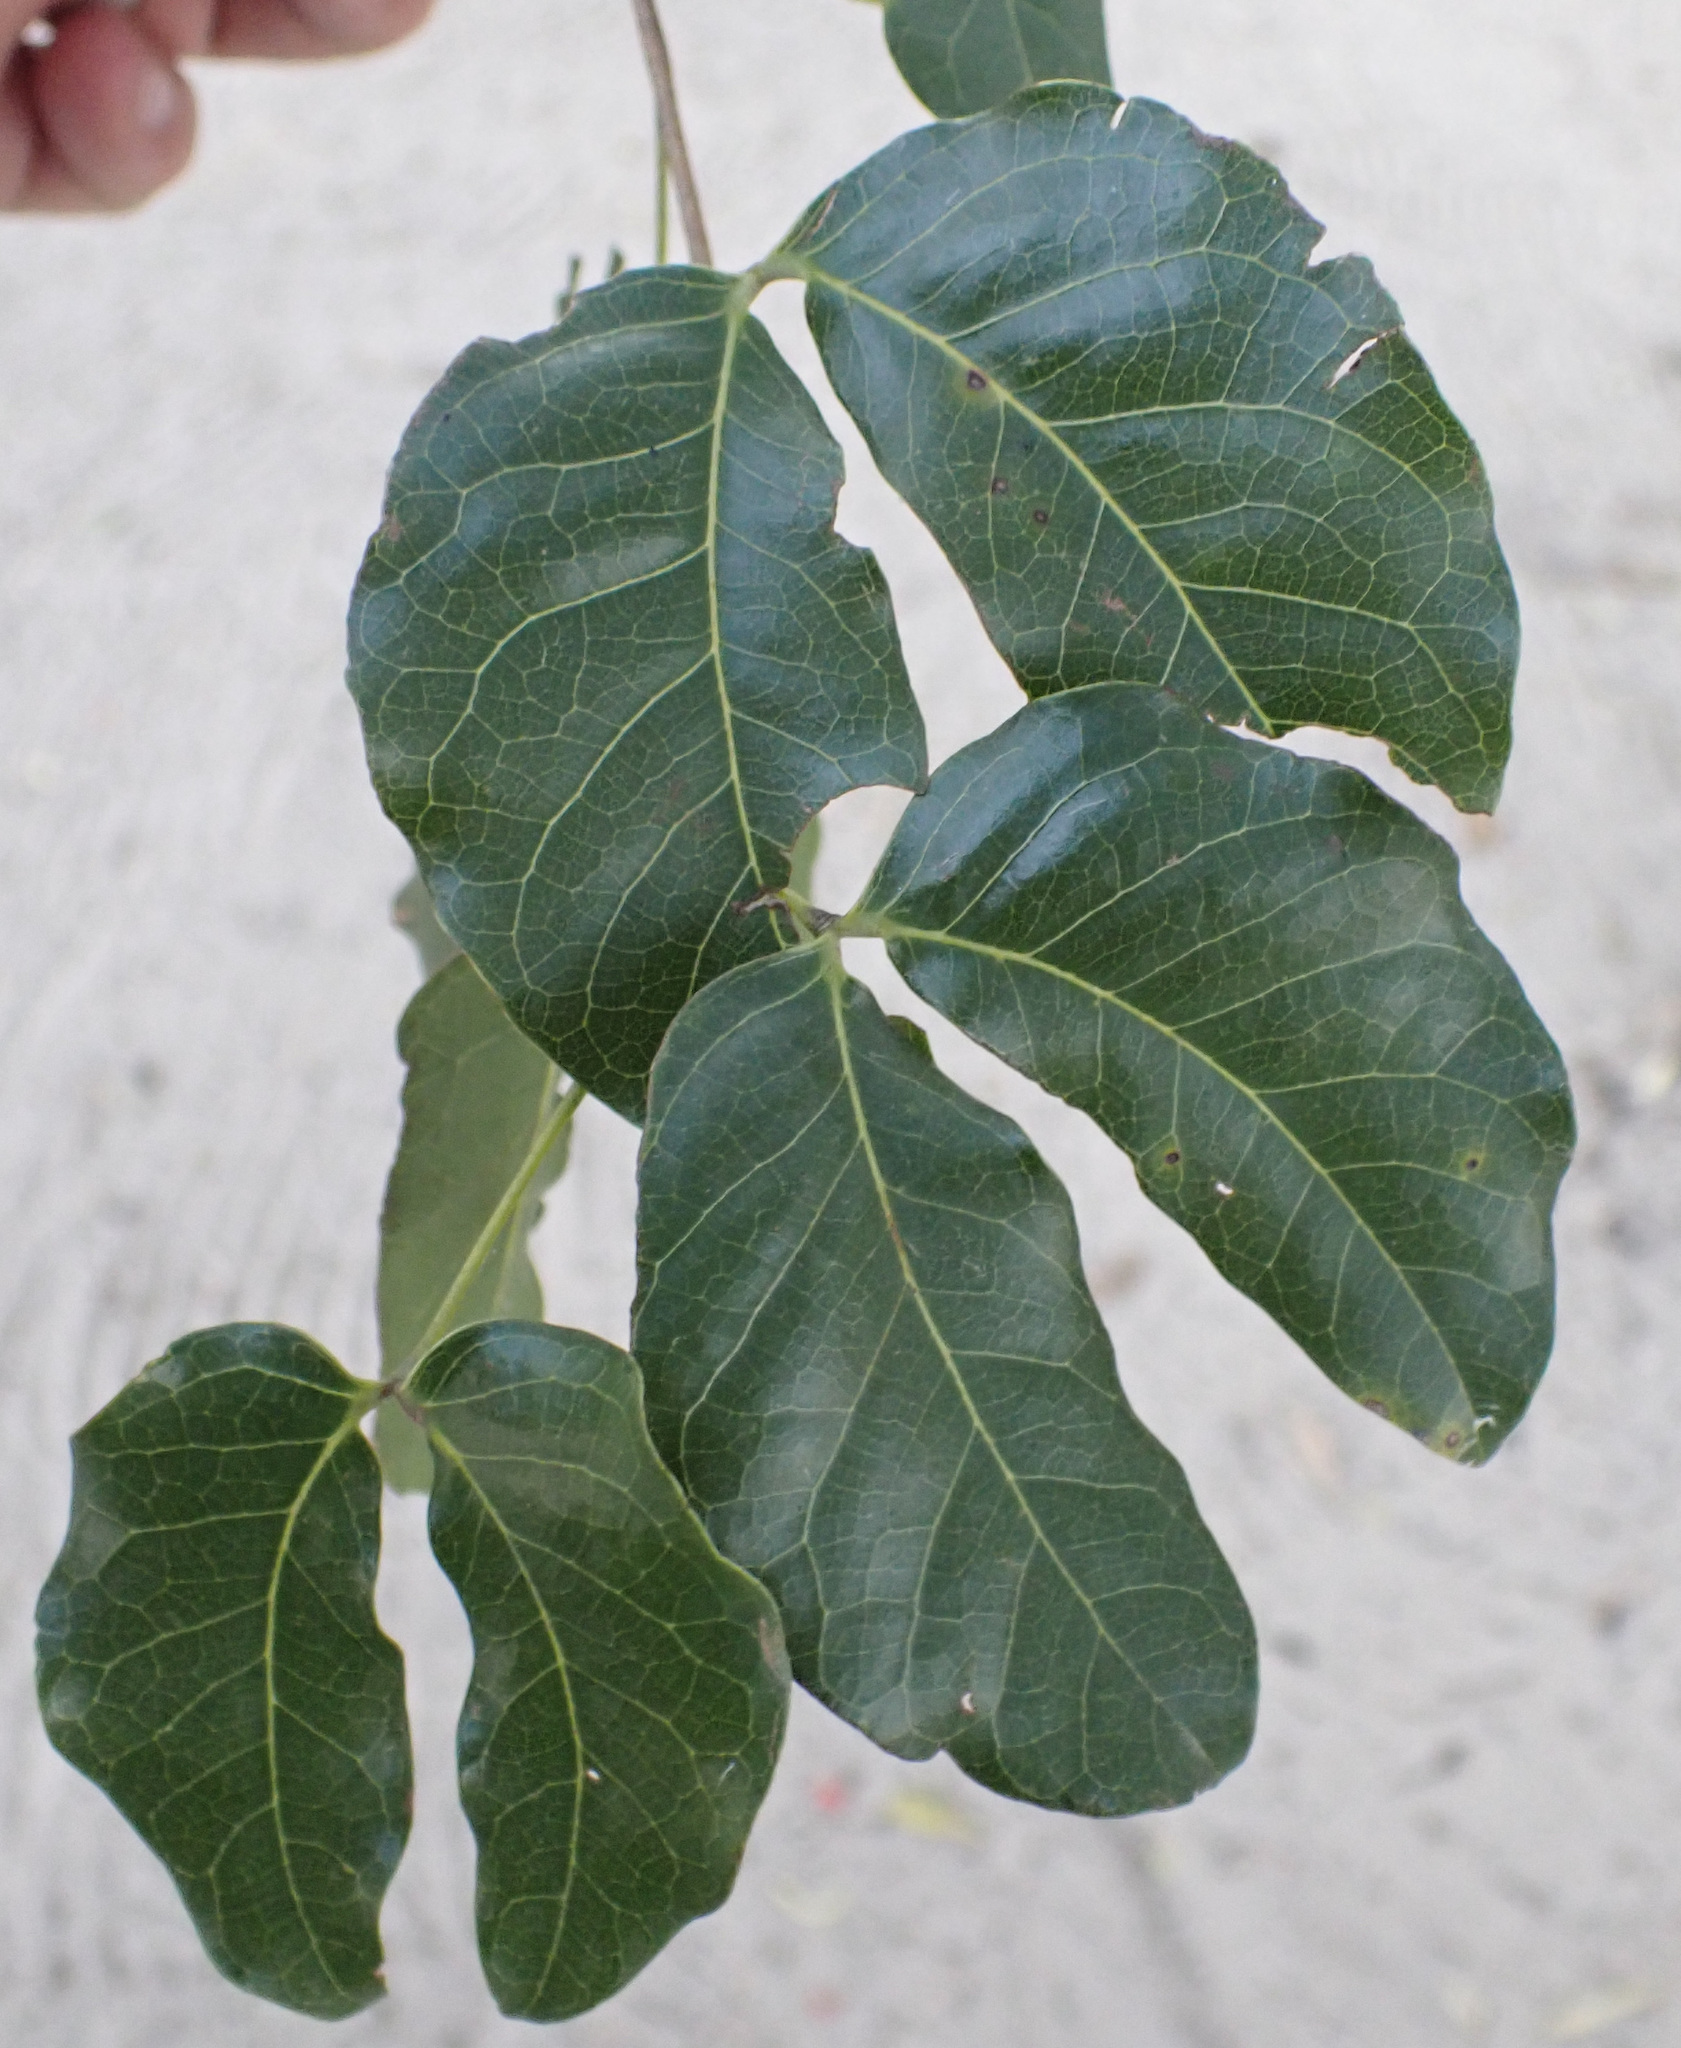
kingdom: Plantae
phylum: Tracheophyta
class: Magnoliopsida
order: Fabales
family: Fabaceae
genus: Guibourtia
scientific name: Guibourtia coleosperma
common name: African rosewoood
